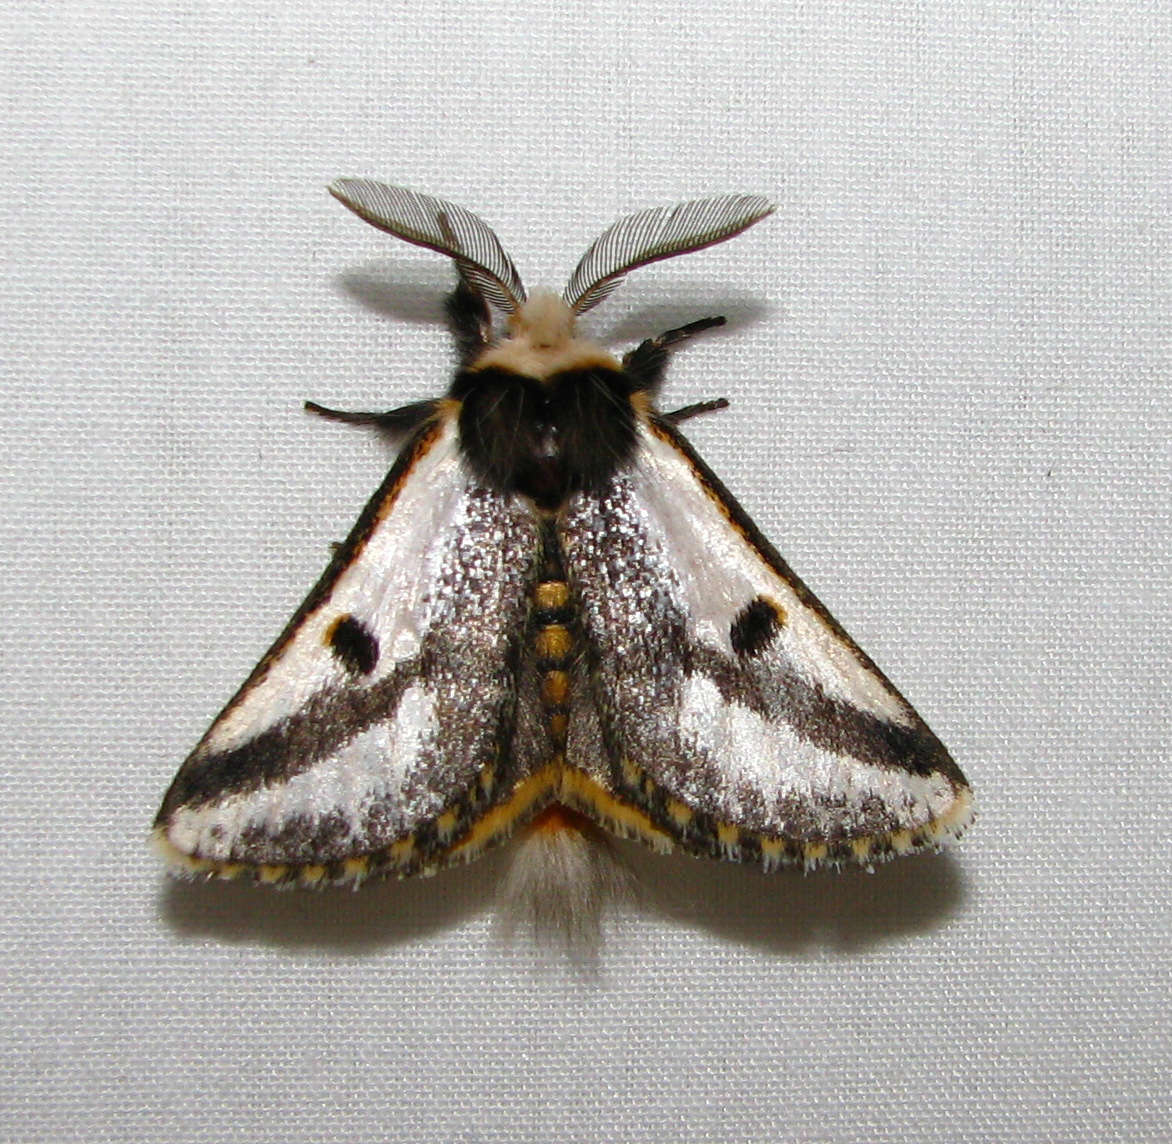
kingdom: Animalia
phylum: Arthropoda
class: Insecta
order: Lepidoptera
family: Notodontidae
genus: Epicoma
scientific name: Epicoma melanospila
